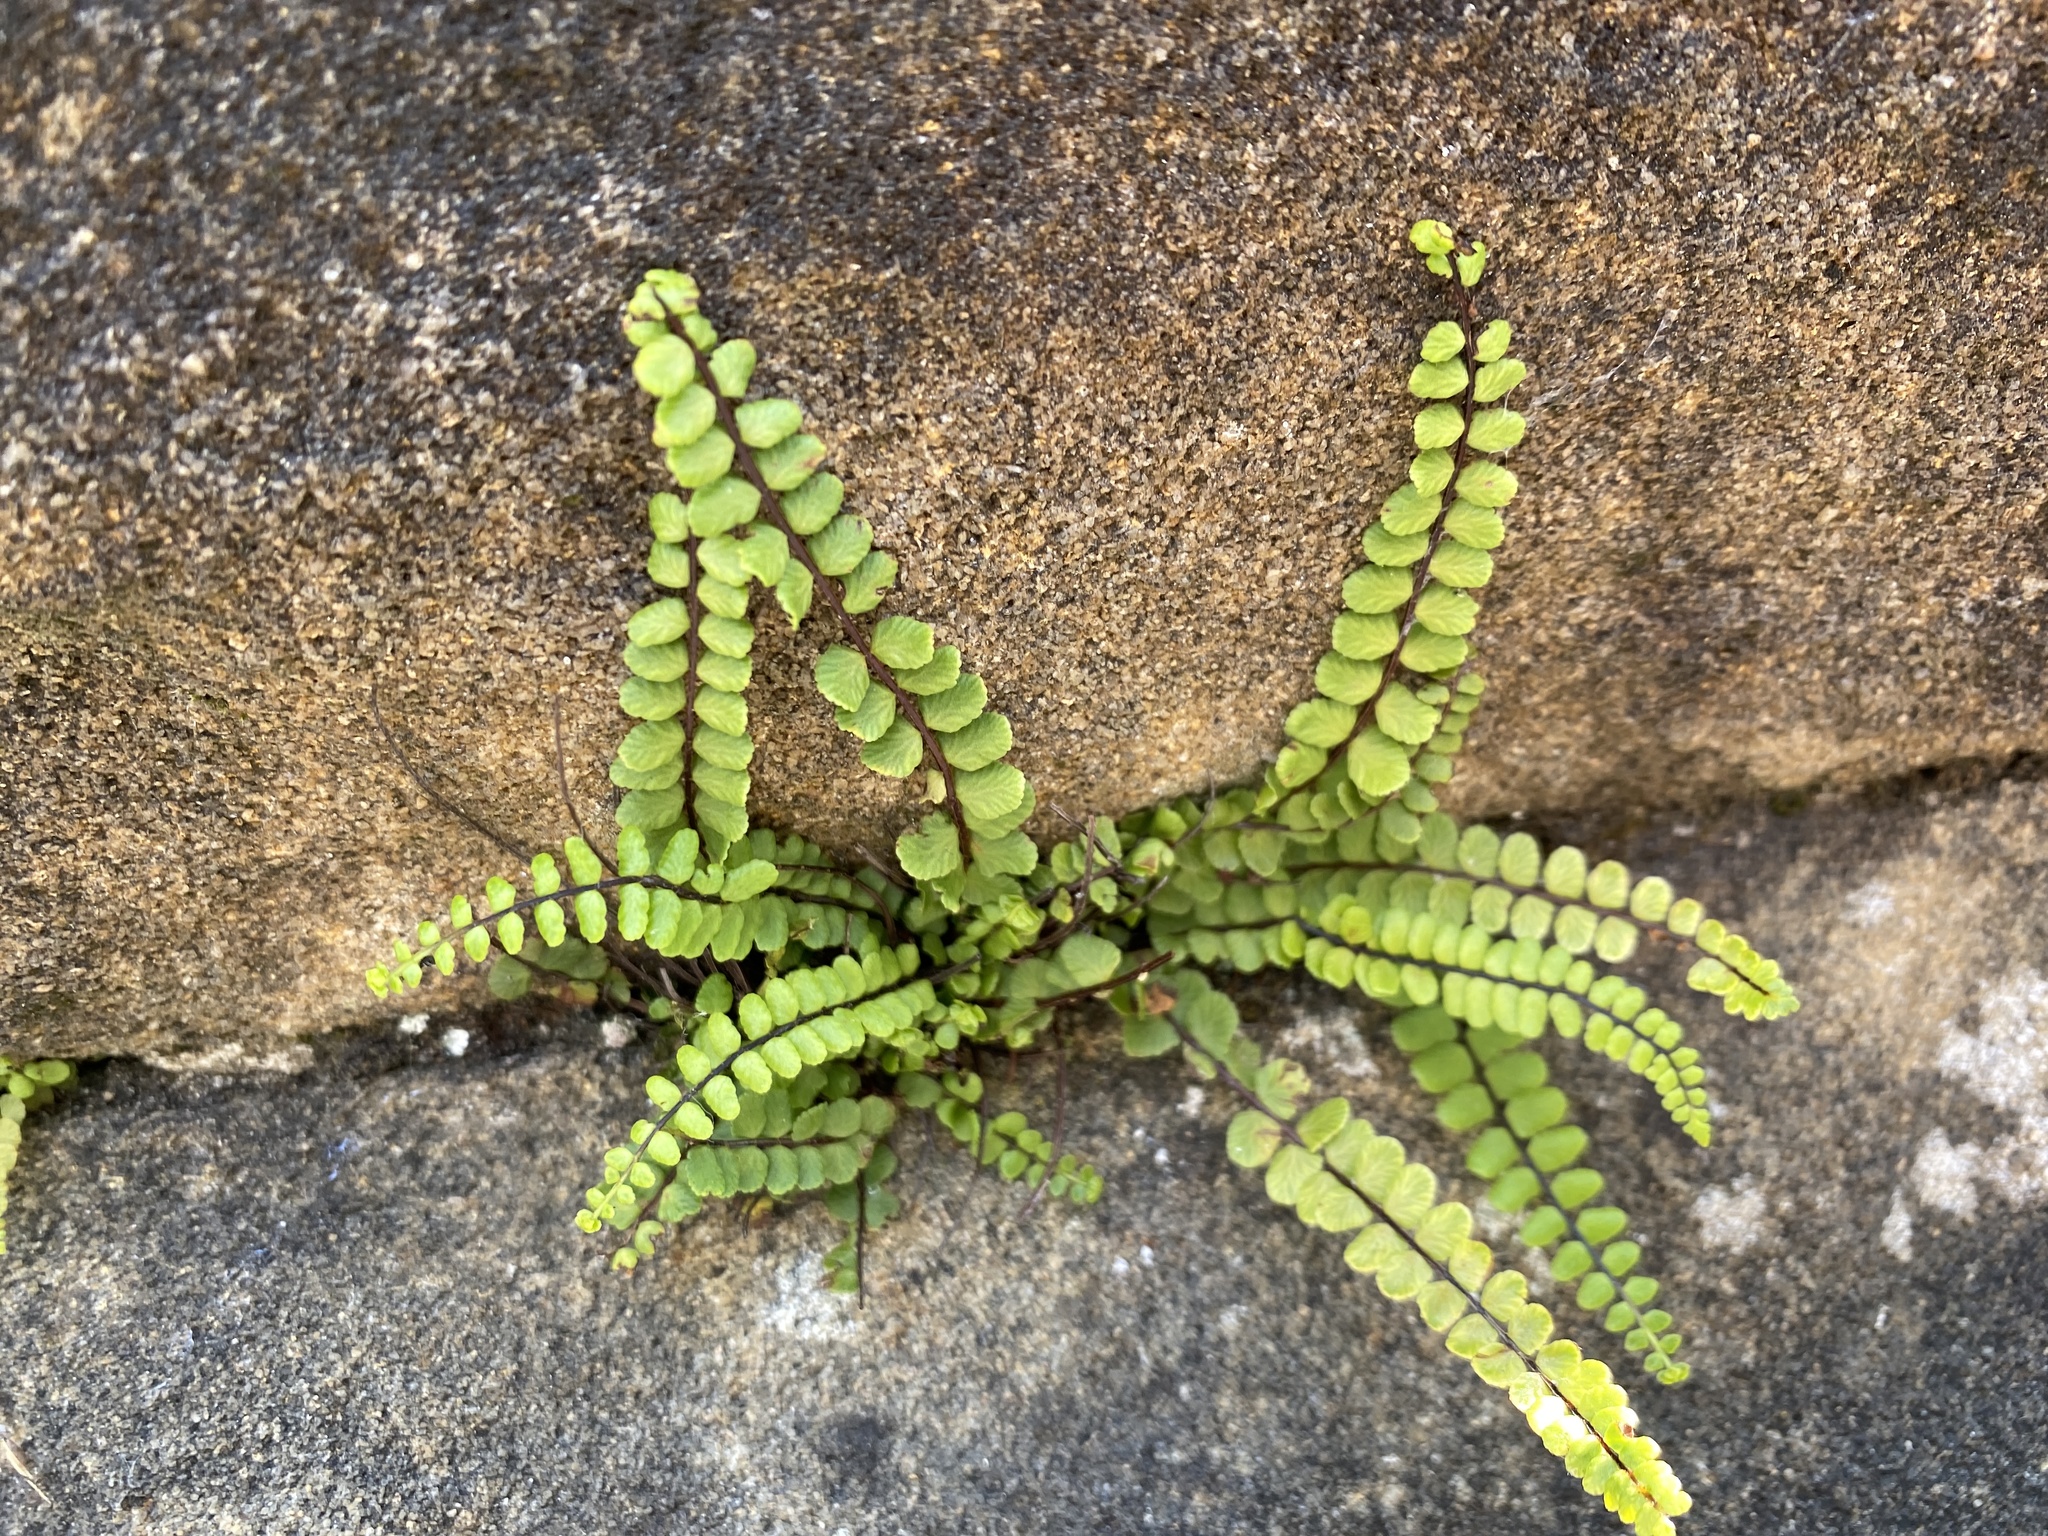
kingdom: Plantae
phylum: Tracheophyta
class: Polypodiopsida
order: Polypodiales
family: Aspleniaceae
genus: Asplenium
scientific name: Asplenium trichomanes
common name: Maidenhair spleenwort
